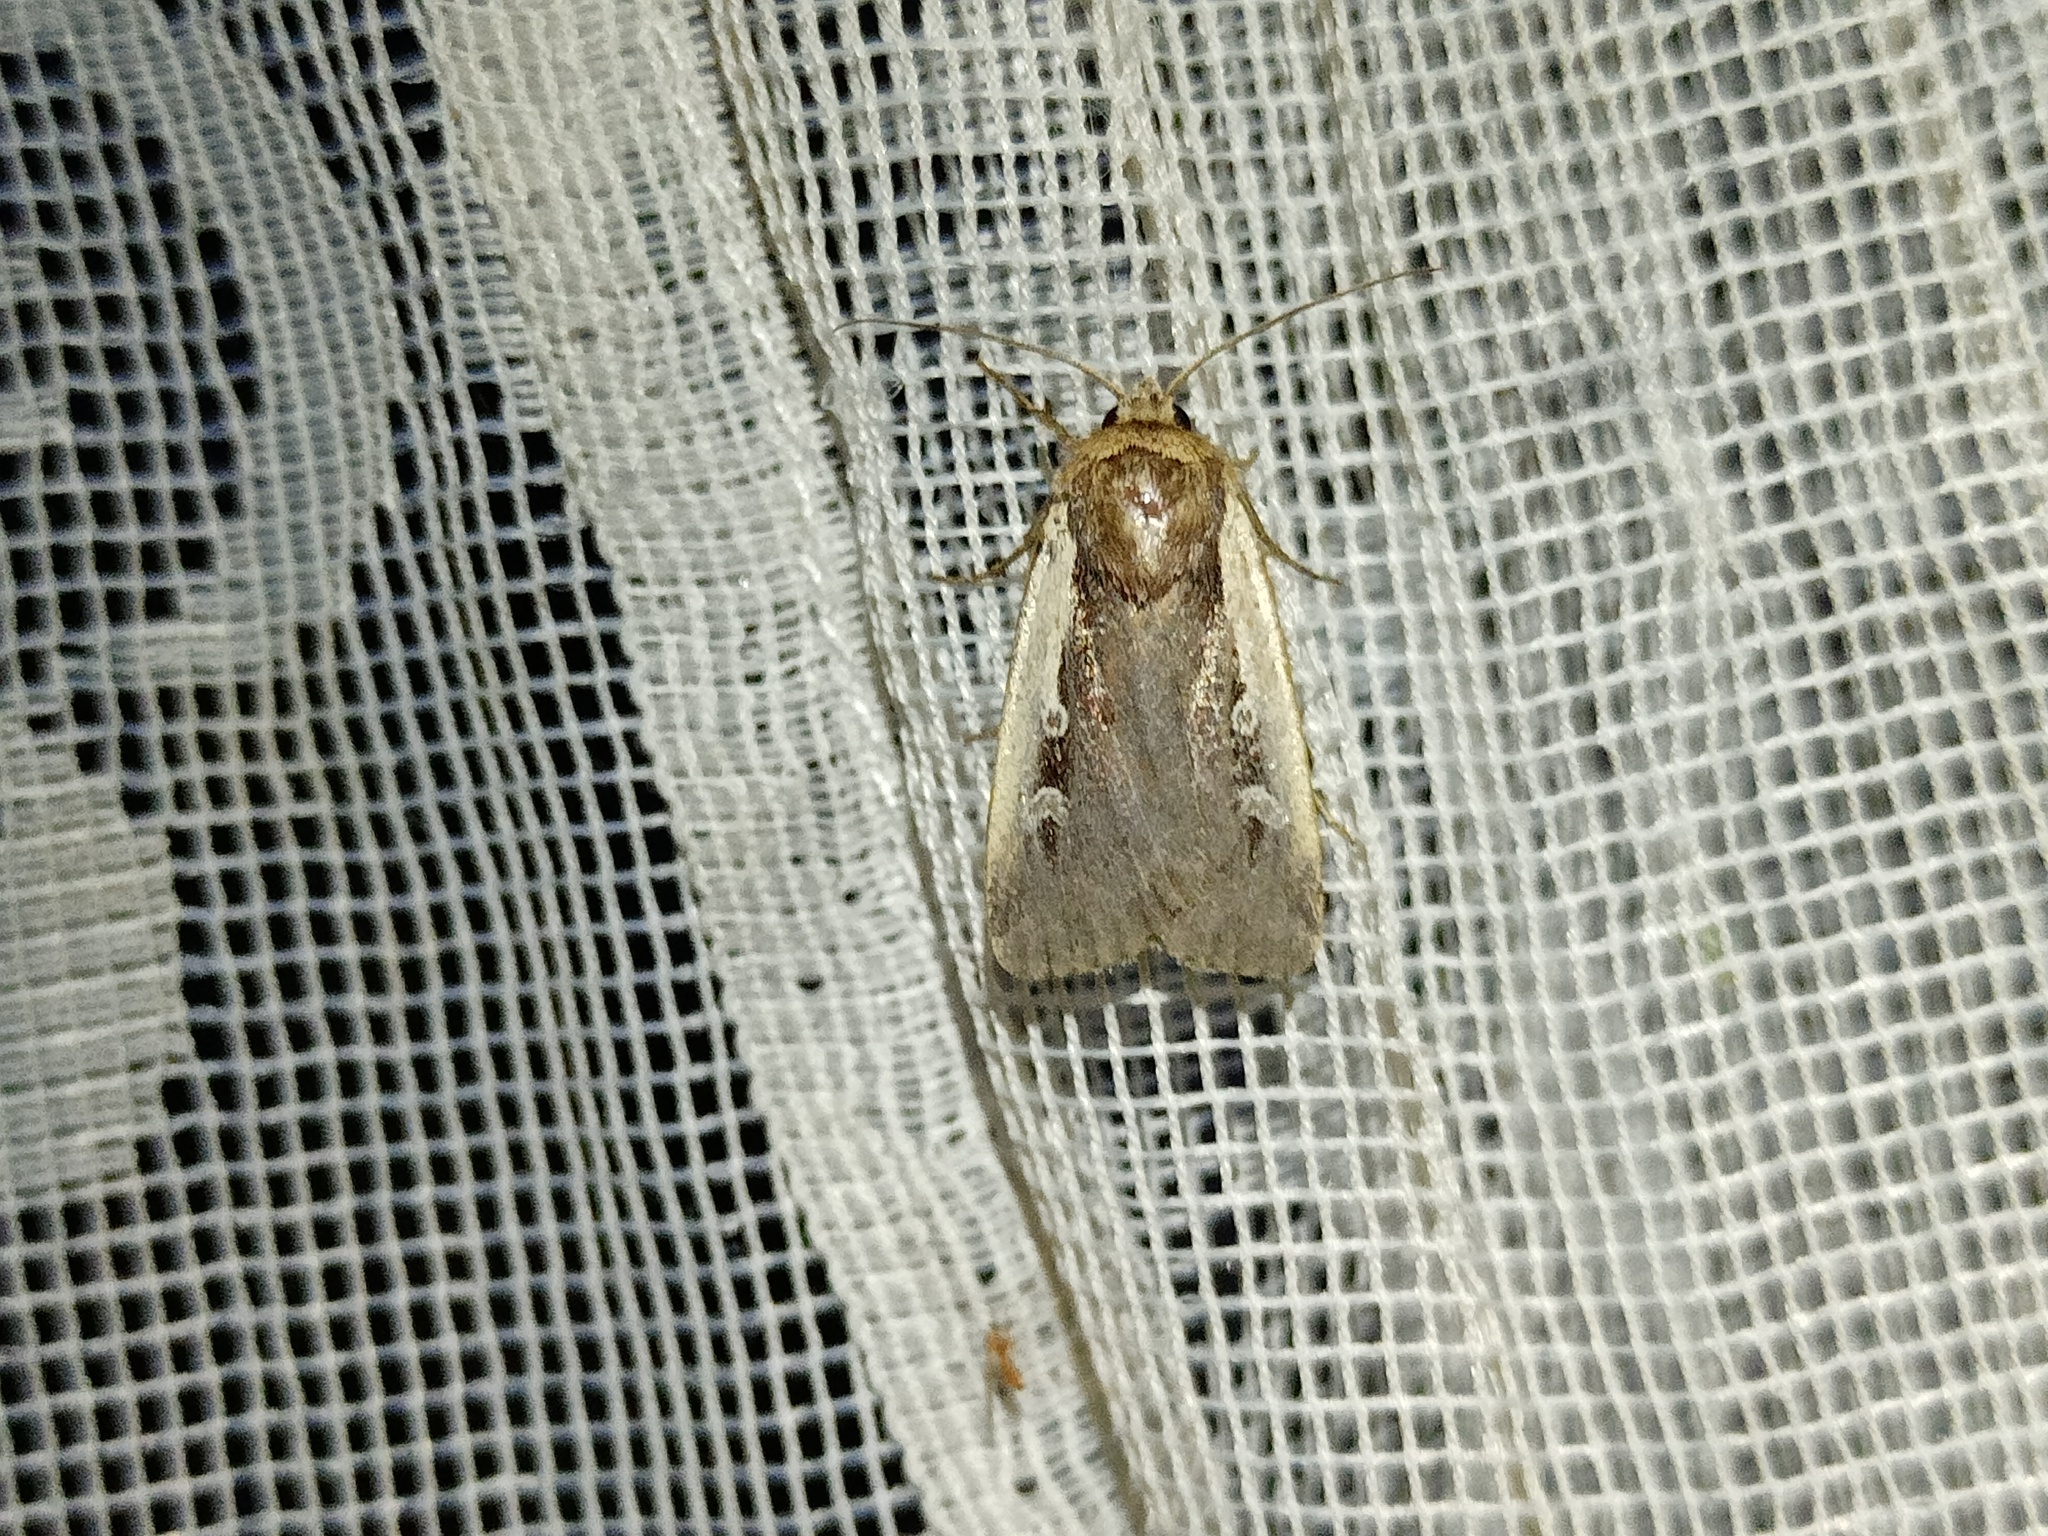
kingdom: Animalia
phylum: Arthropoda
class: Insecta
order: Lepidoptera
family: Noctuidae
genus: Ochropleura
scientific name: Ochropleura plecta
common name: Flame shoulder
